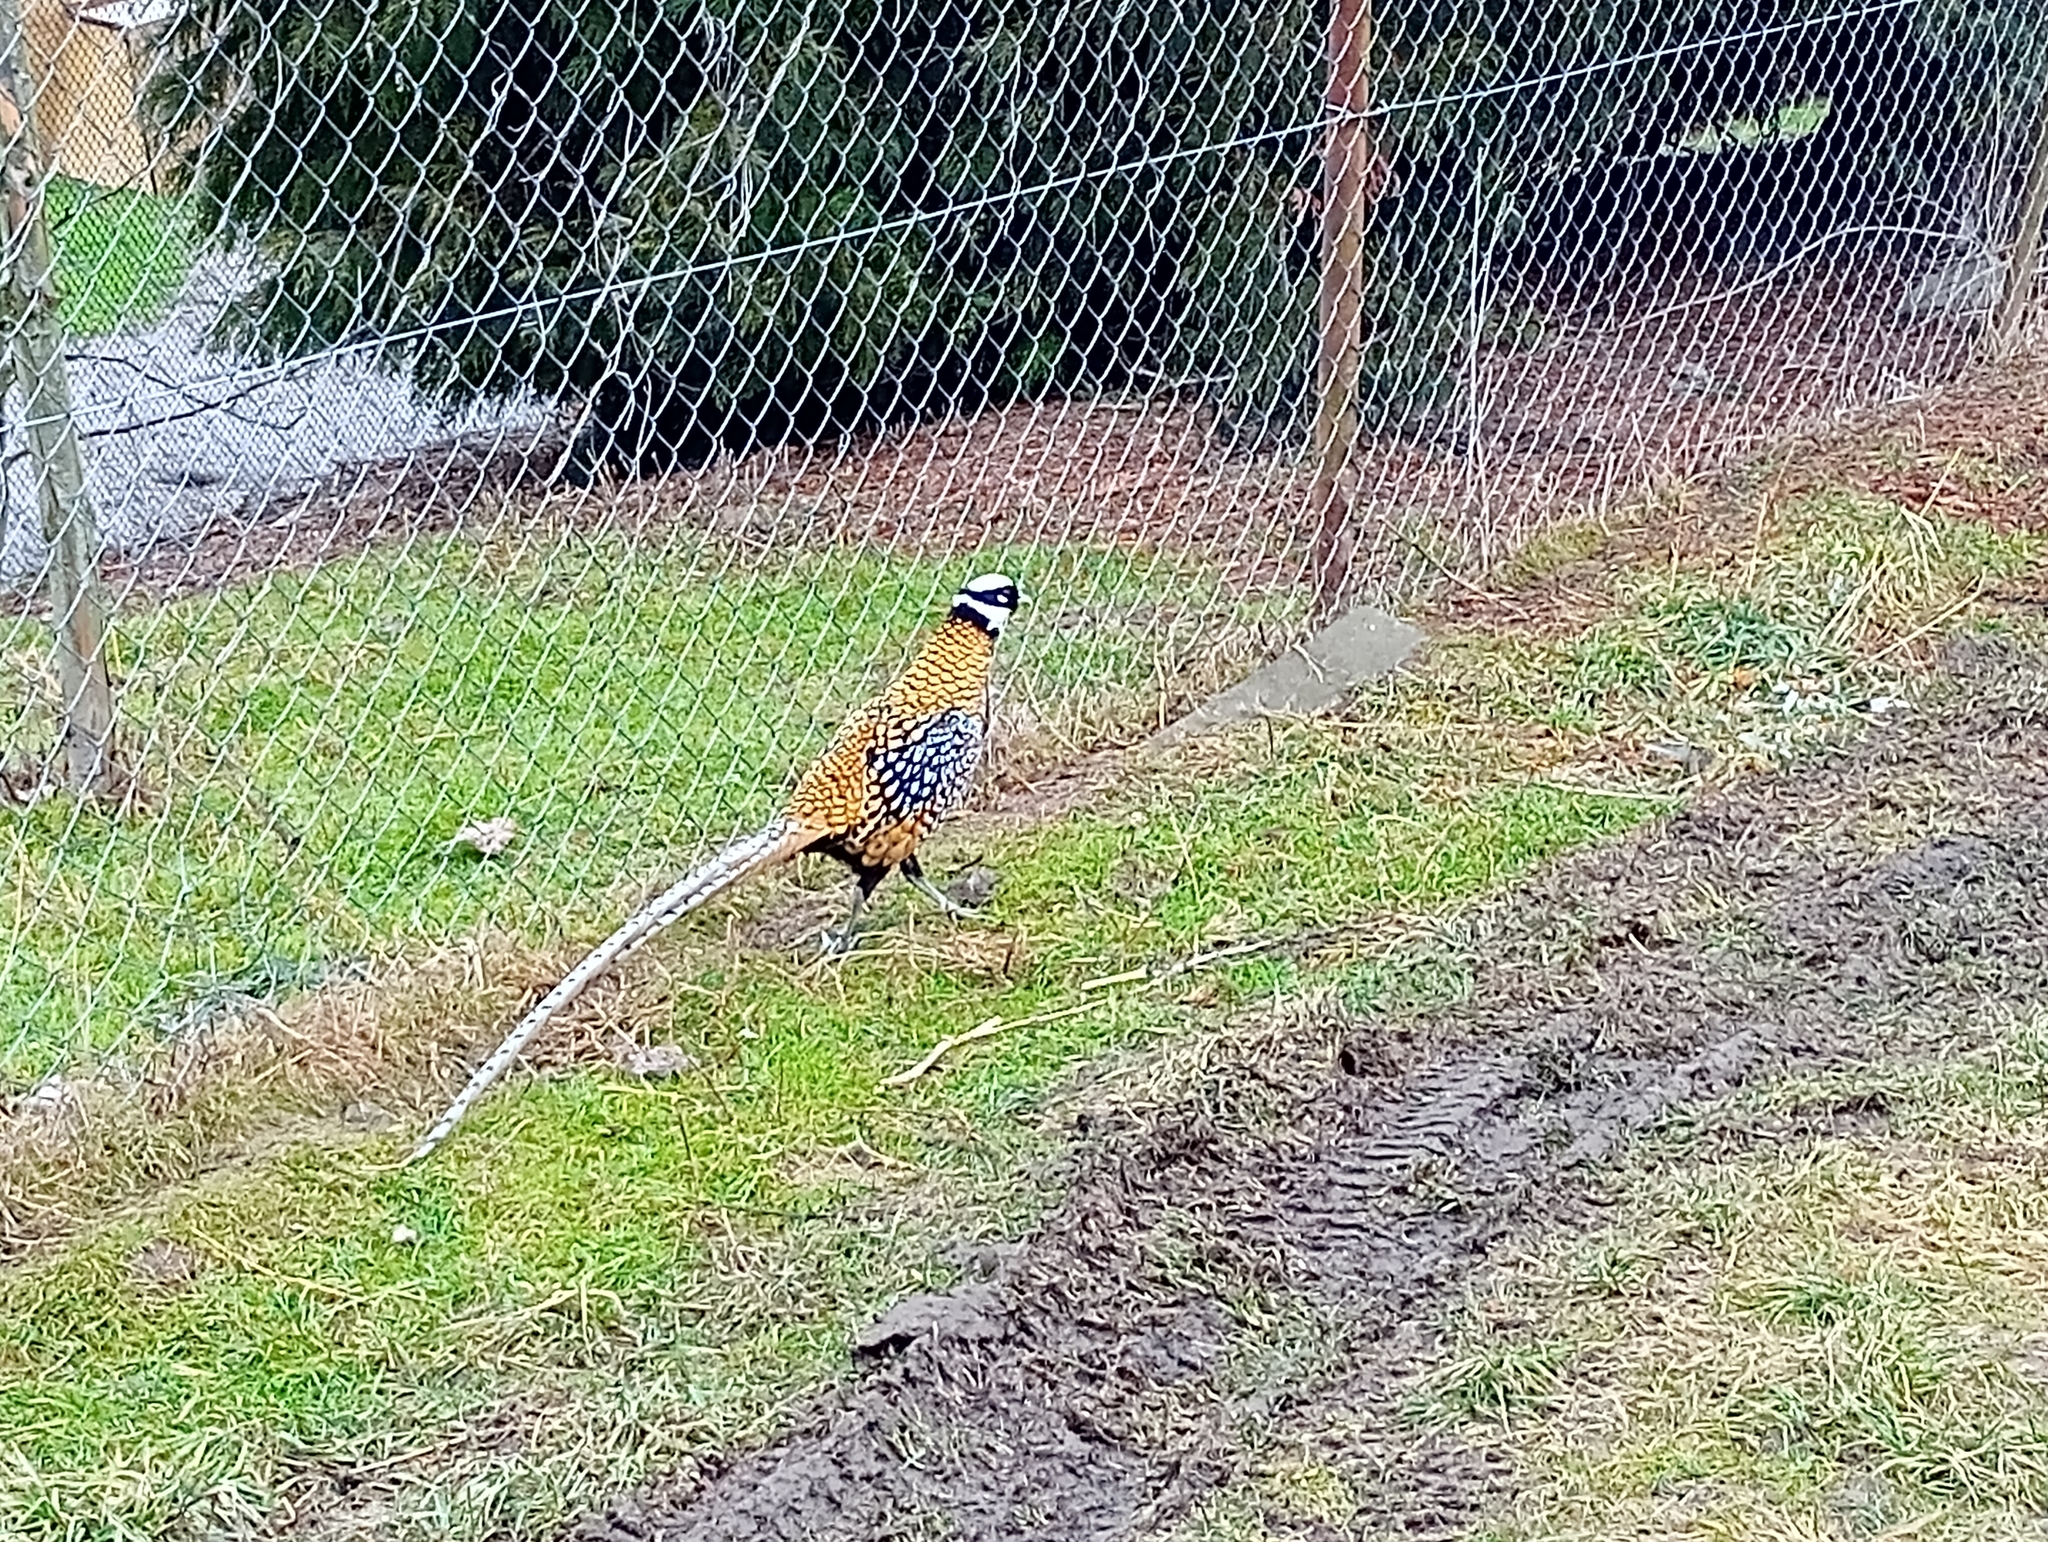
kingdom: Animalia
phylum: Chordata
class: Aves
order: Galliformes
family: Phasianidae
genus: Syrmaticus
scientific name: Syrmaticus reevesii
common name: Reeves's pheasant
